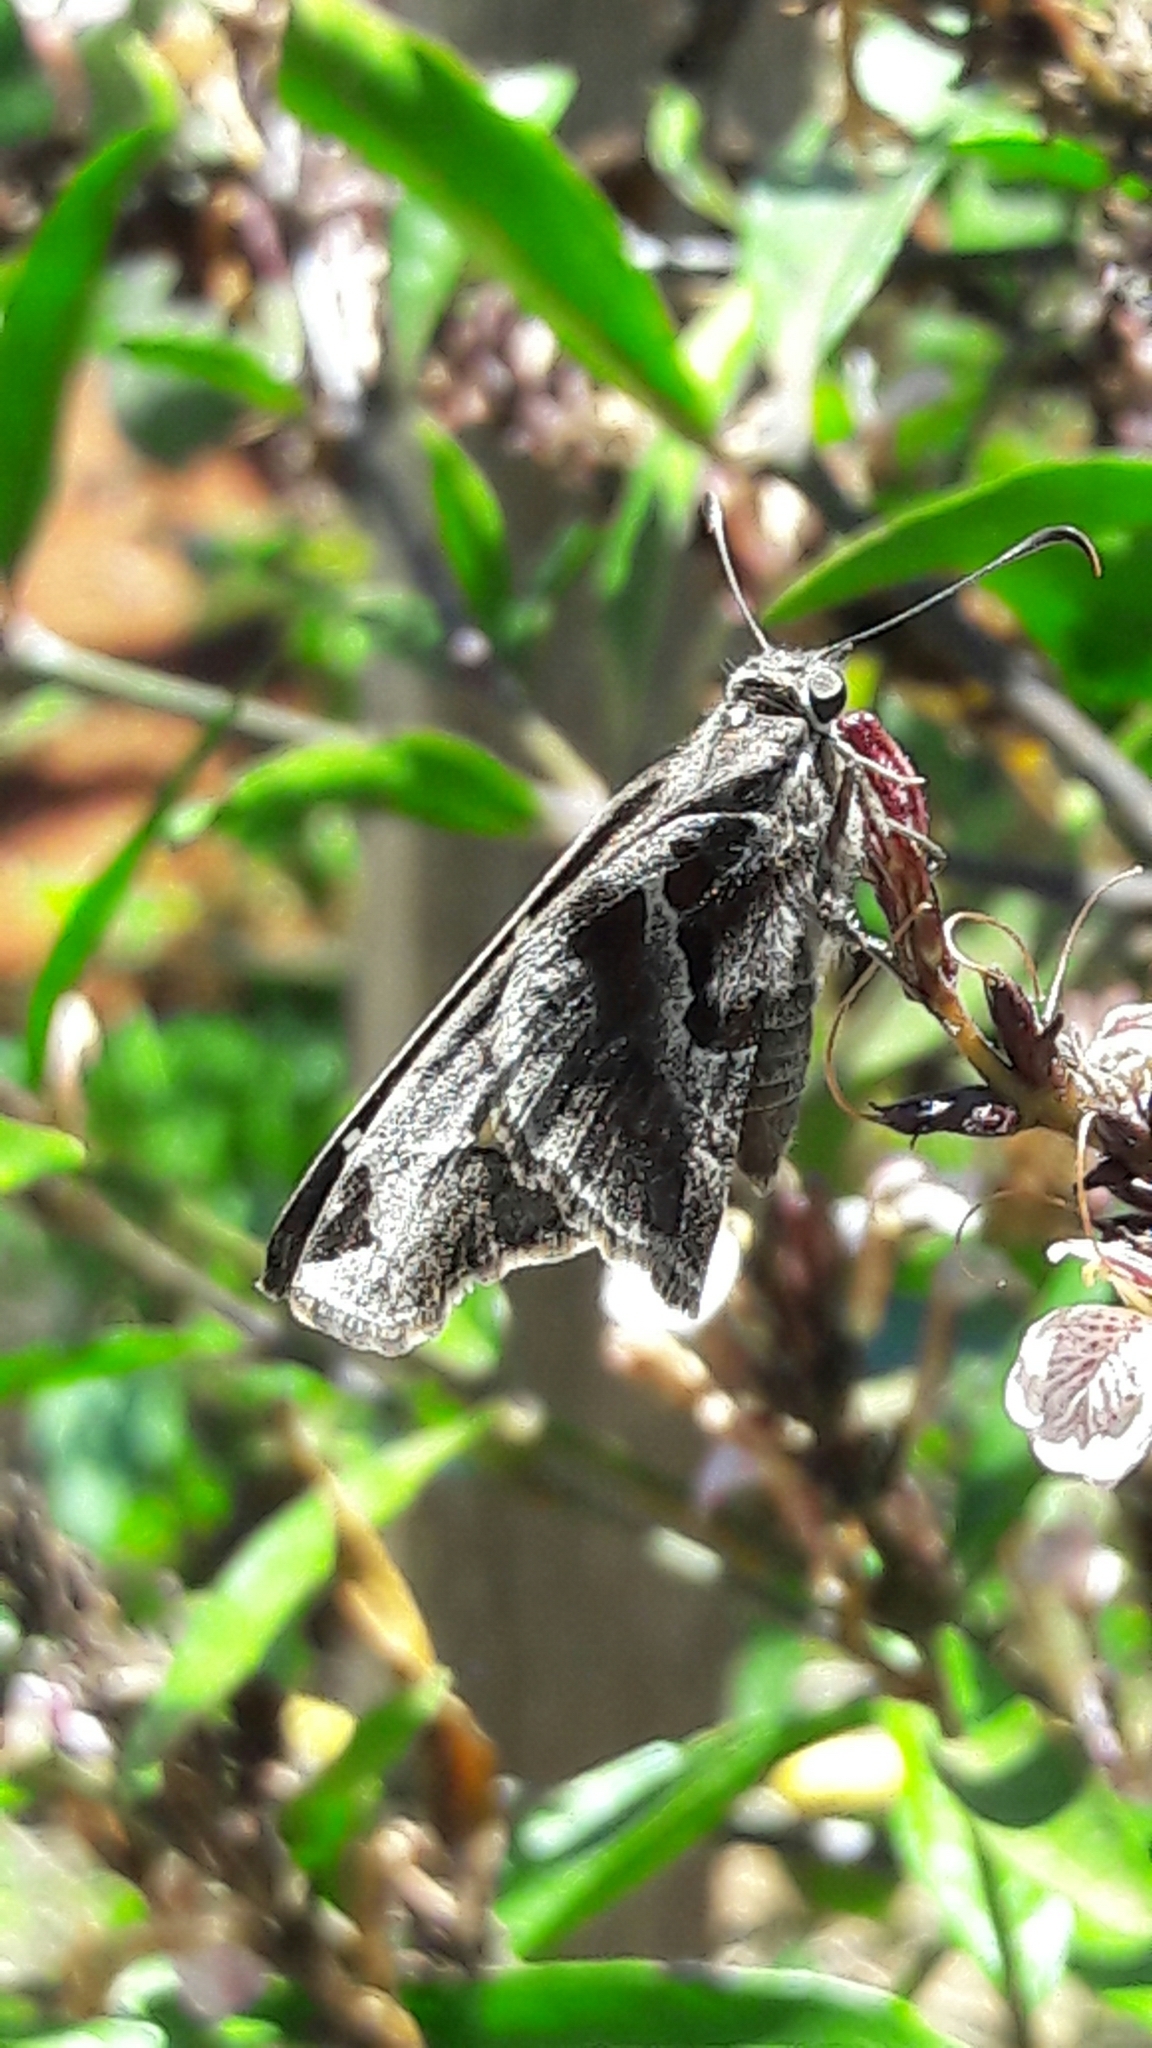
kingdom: Animalia
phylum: Arthropoda
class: Insecta
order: Lepidoptera
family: Hesperiidae
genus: Chioides
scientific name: Chioides catillus
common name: Silverbanded skipper
